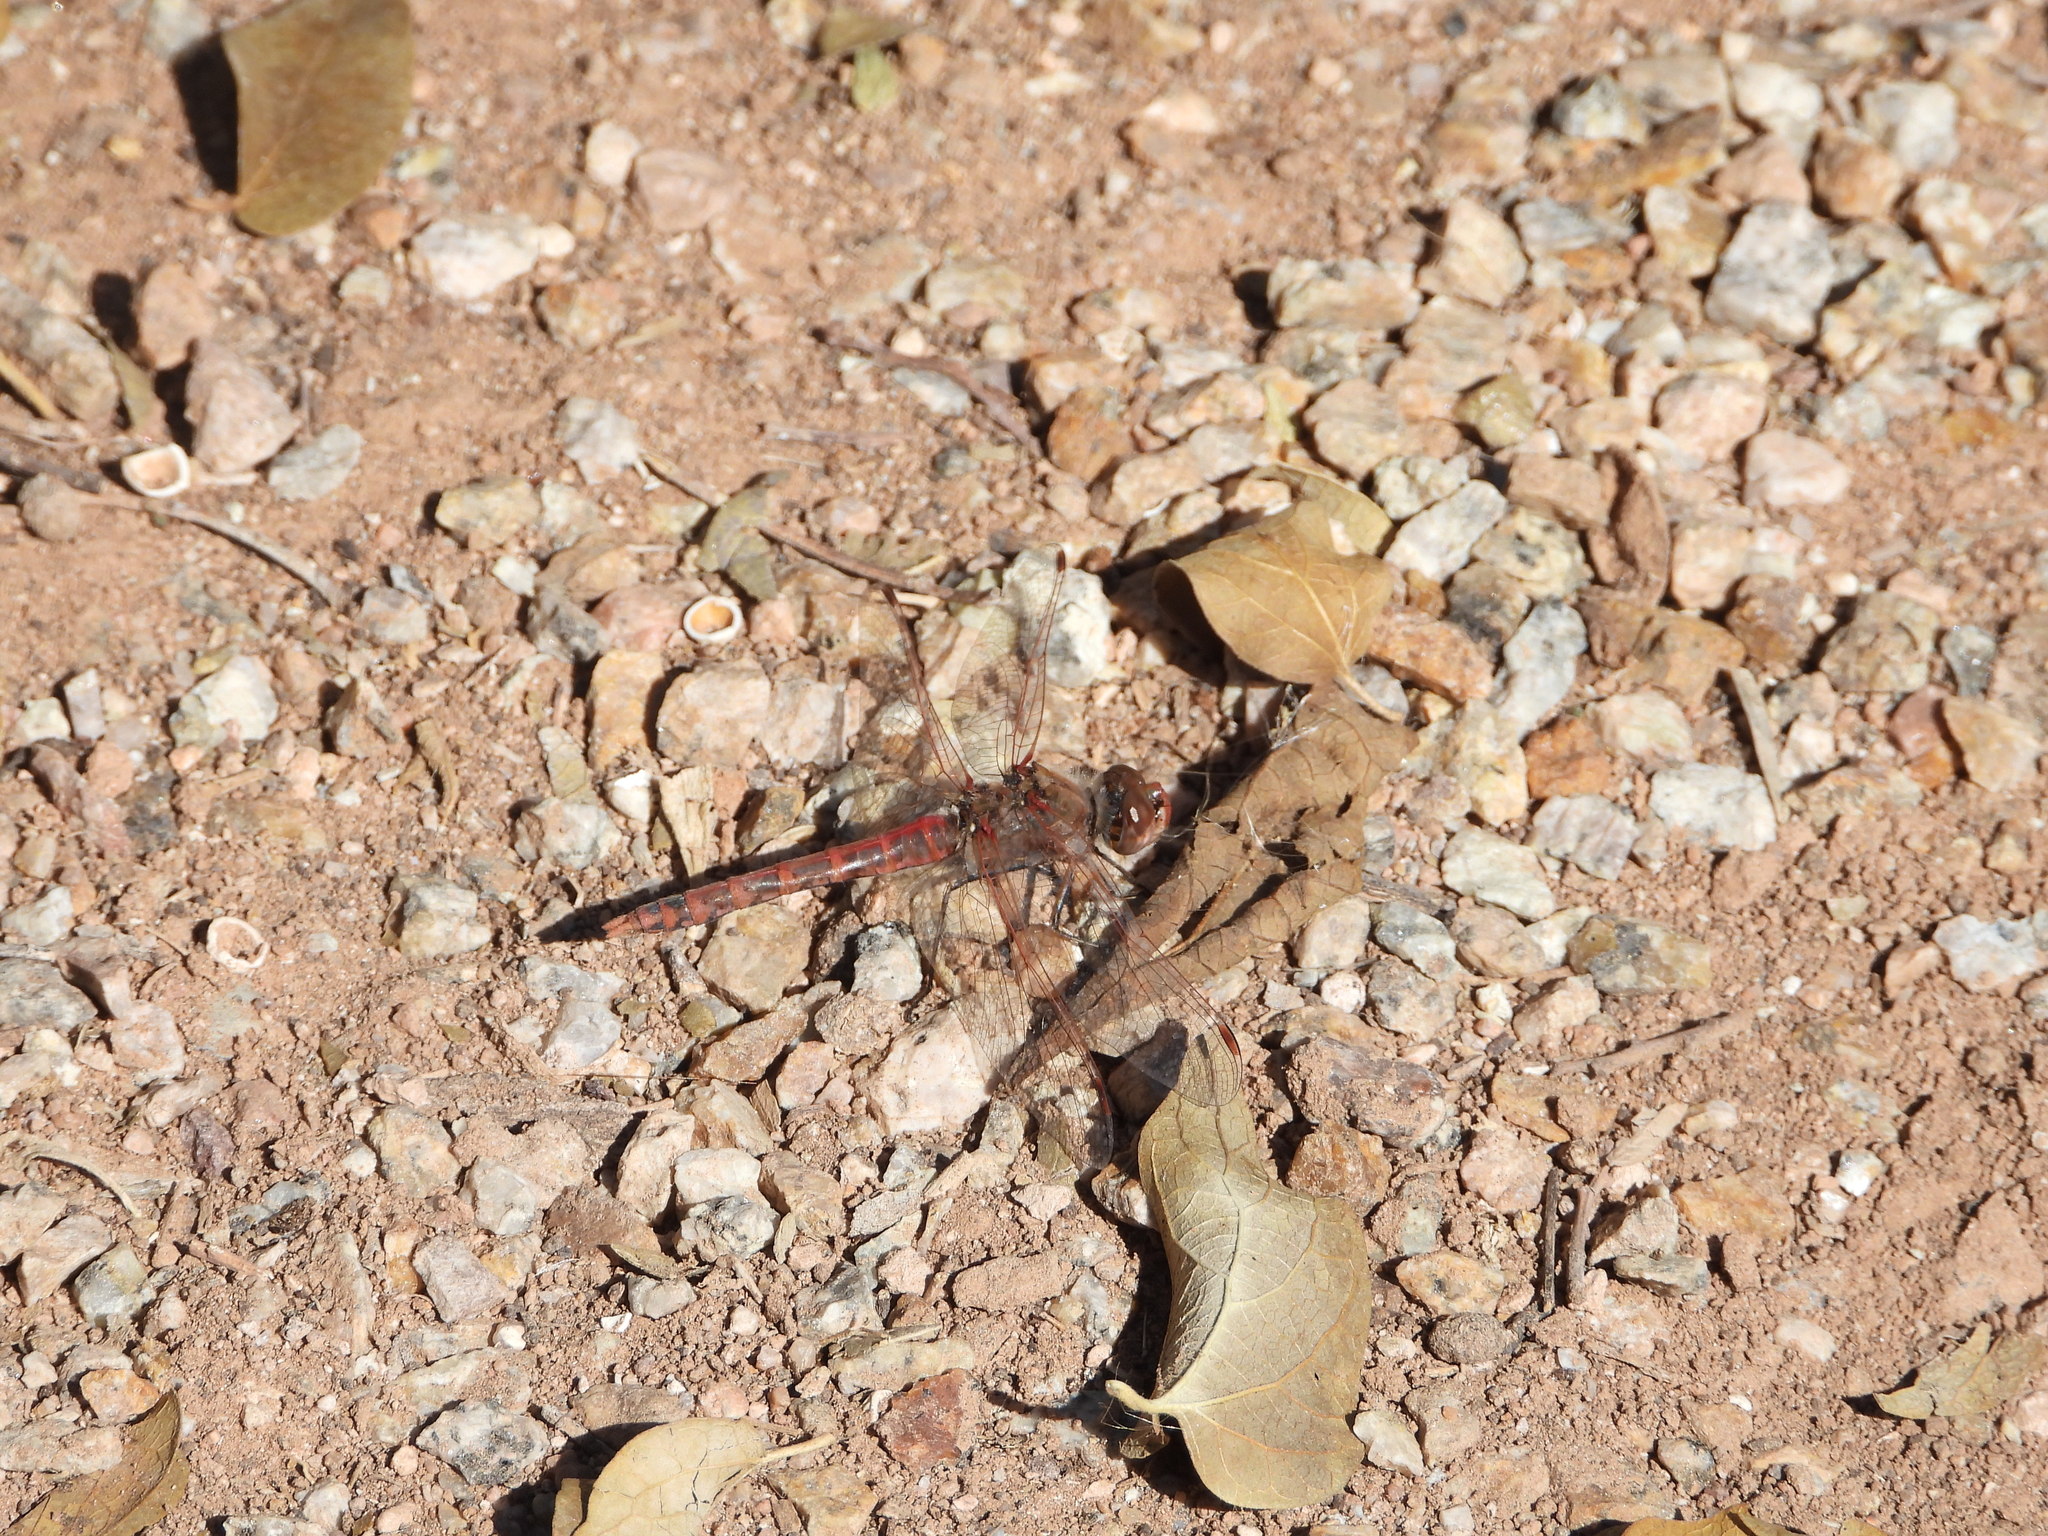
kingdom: Animalia
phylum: Arthropoda
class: Insecta
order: Odonata
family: Libellulidae
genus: Sympetrum
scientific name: Sympetrum corruptum
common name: Variegated meadowhawk
